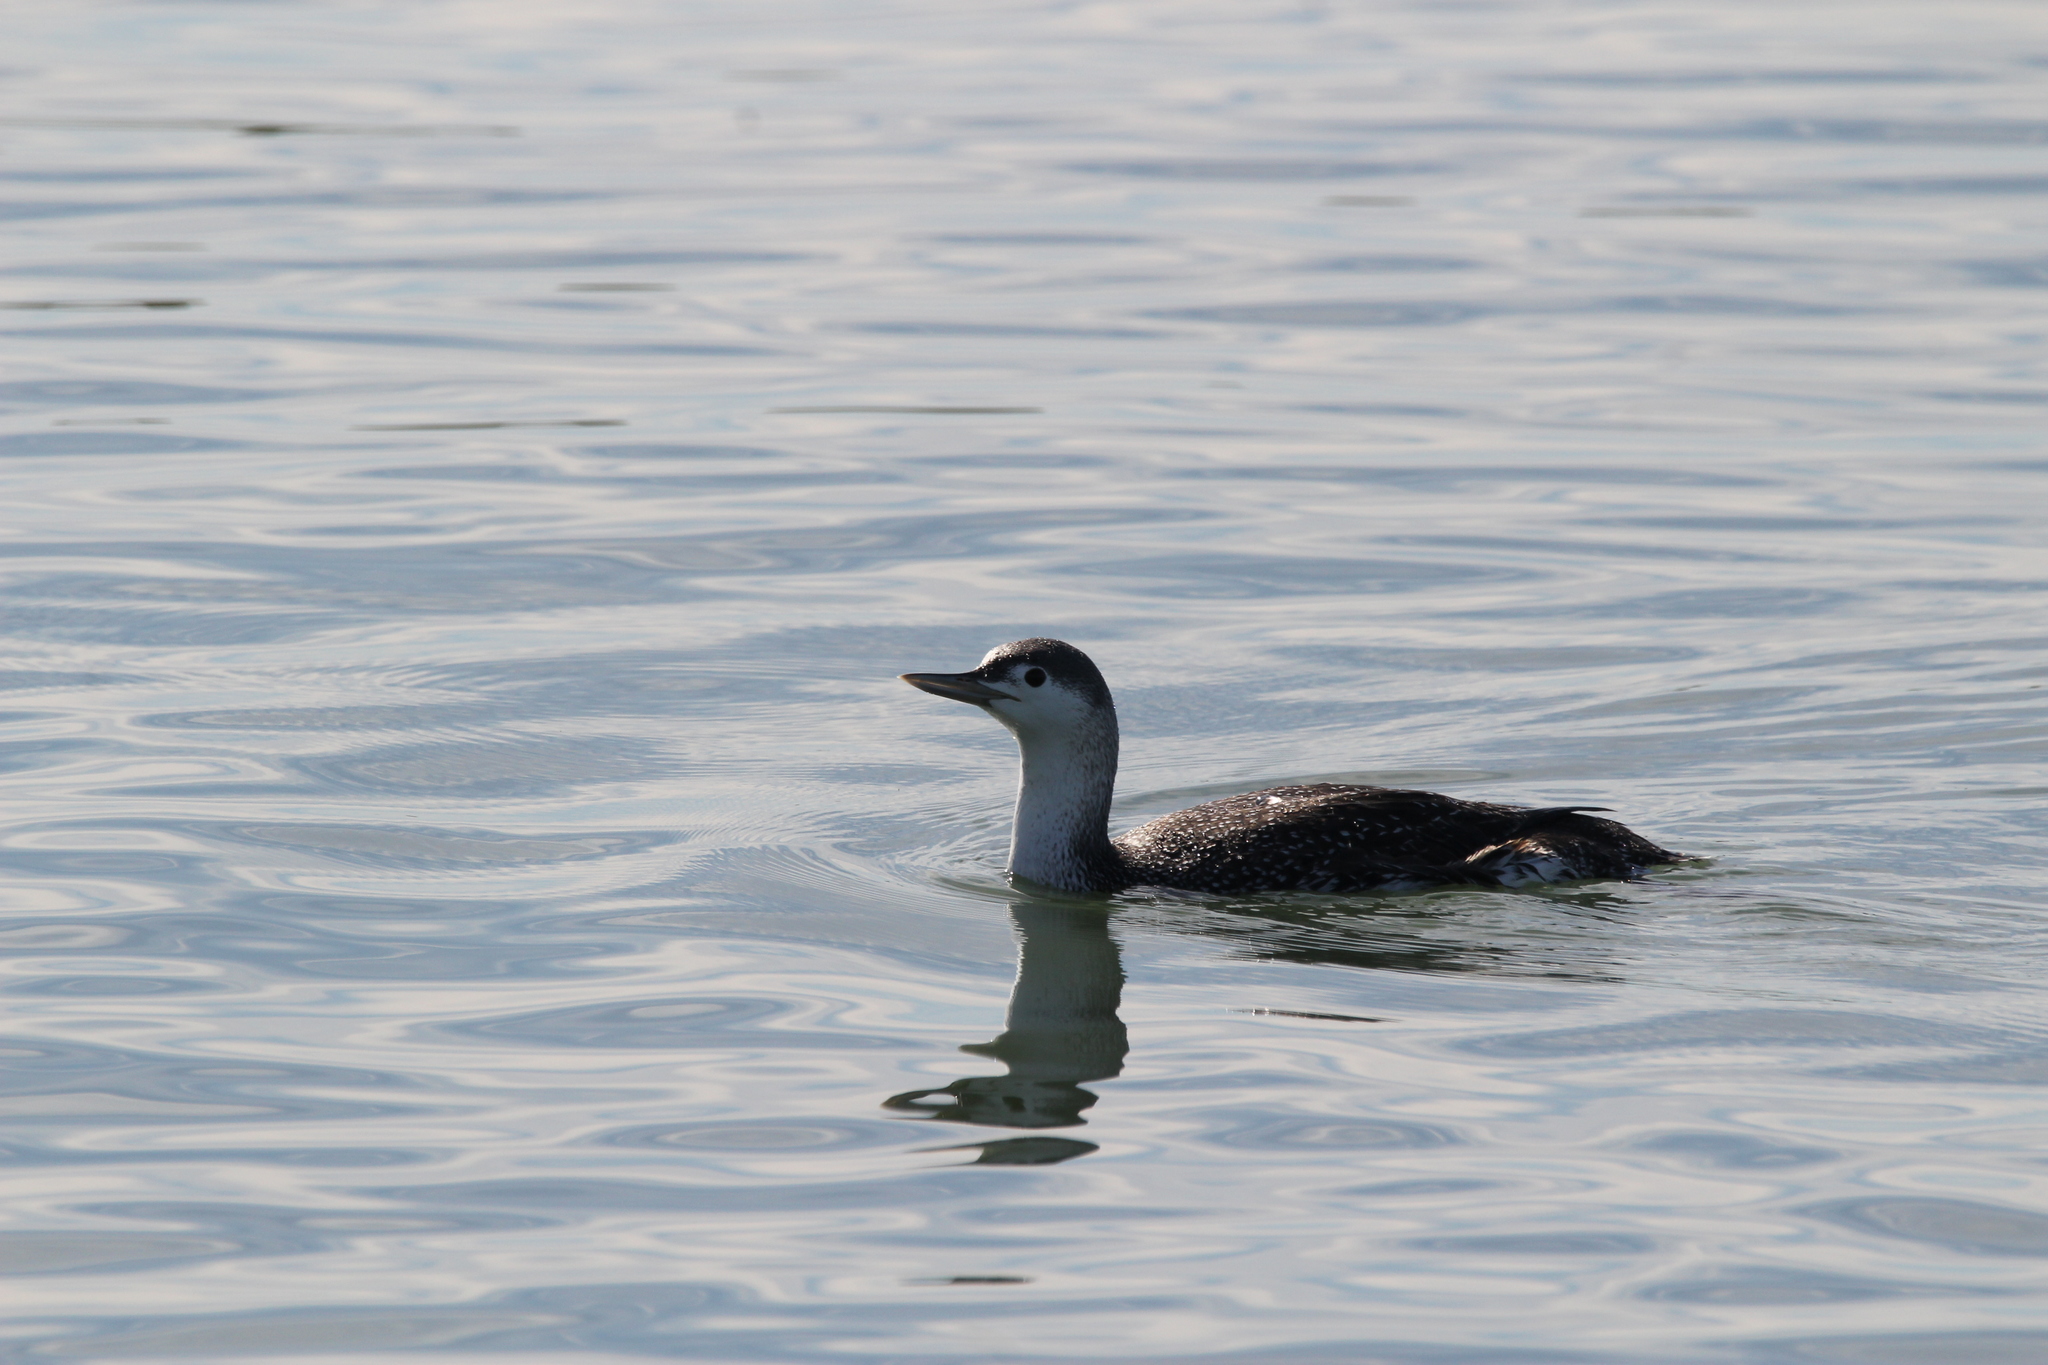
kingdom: Animalia
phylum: Chordata
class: Aves
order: Gaviiformes
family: Gaviidae
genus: Gavia
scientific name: Gavia stellata
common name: Red-throated loon
